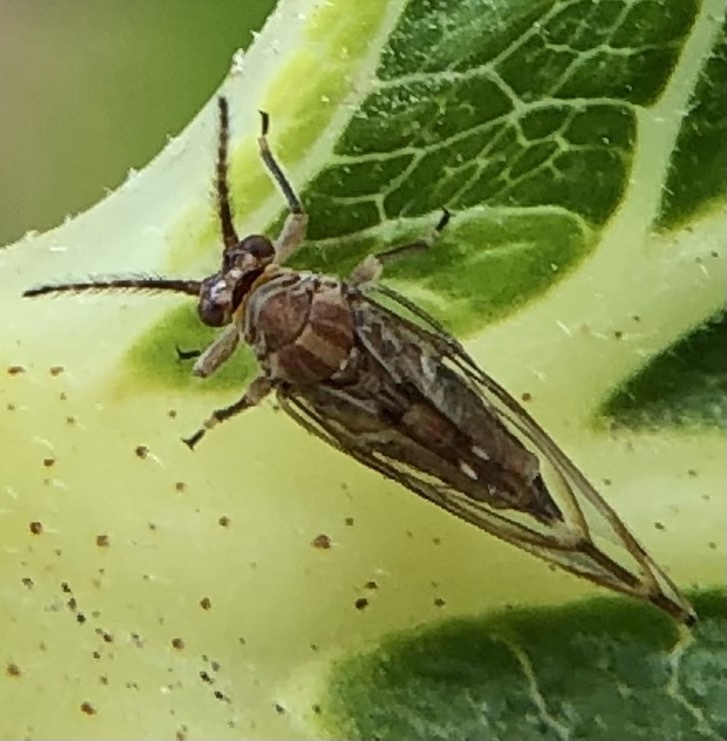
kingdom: Animalia
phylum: Arthropoda
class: Insecta
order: Hemiptera
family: Homotomidae
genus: Homotoma
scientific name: Homotoma ficus
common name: Fig psillid
